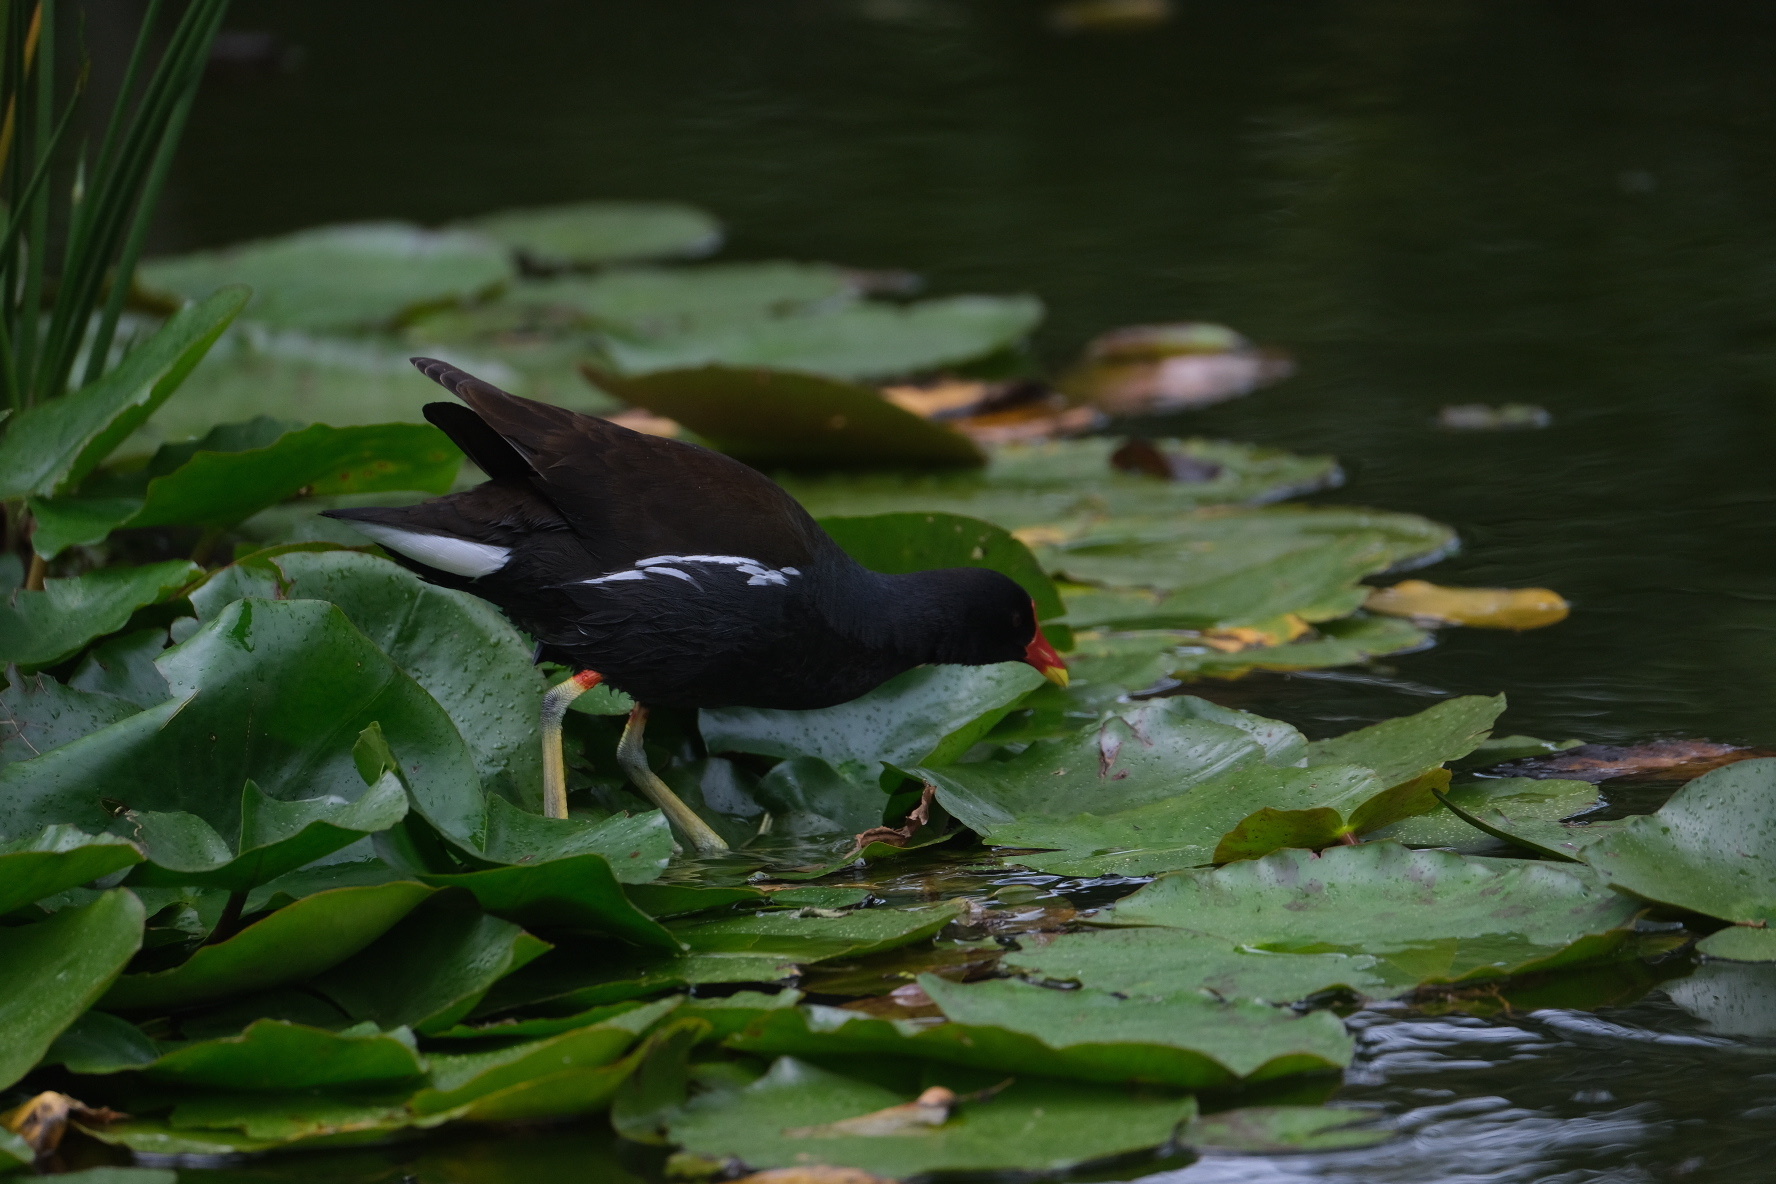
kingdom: Animalia
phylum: Chordata
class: Aves
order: Gruiformes
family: Rallidae
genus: Gallinula
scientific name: Gallinula chloropus
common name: Common moorhen
